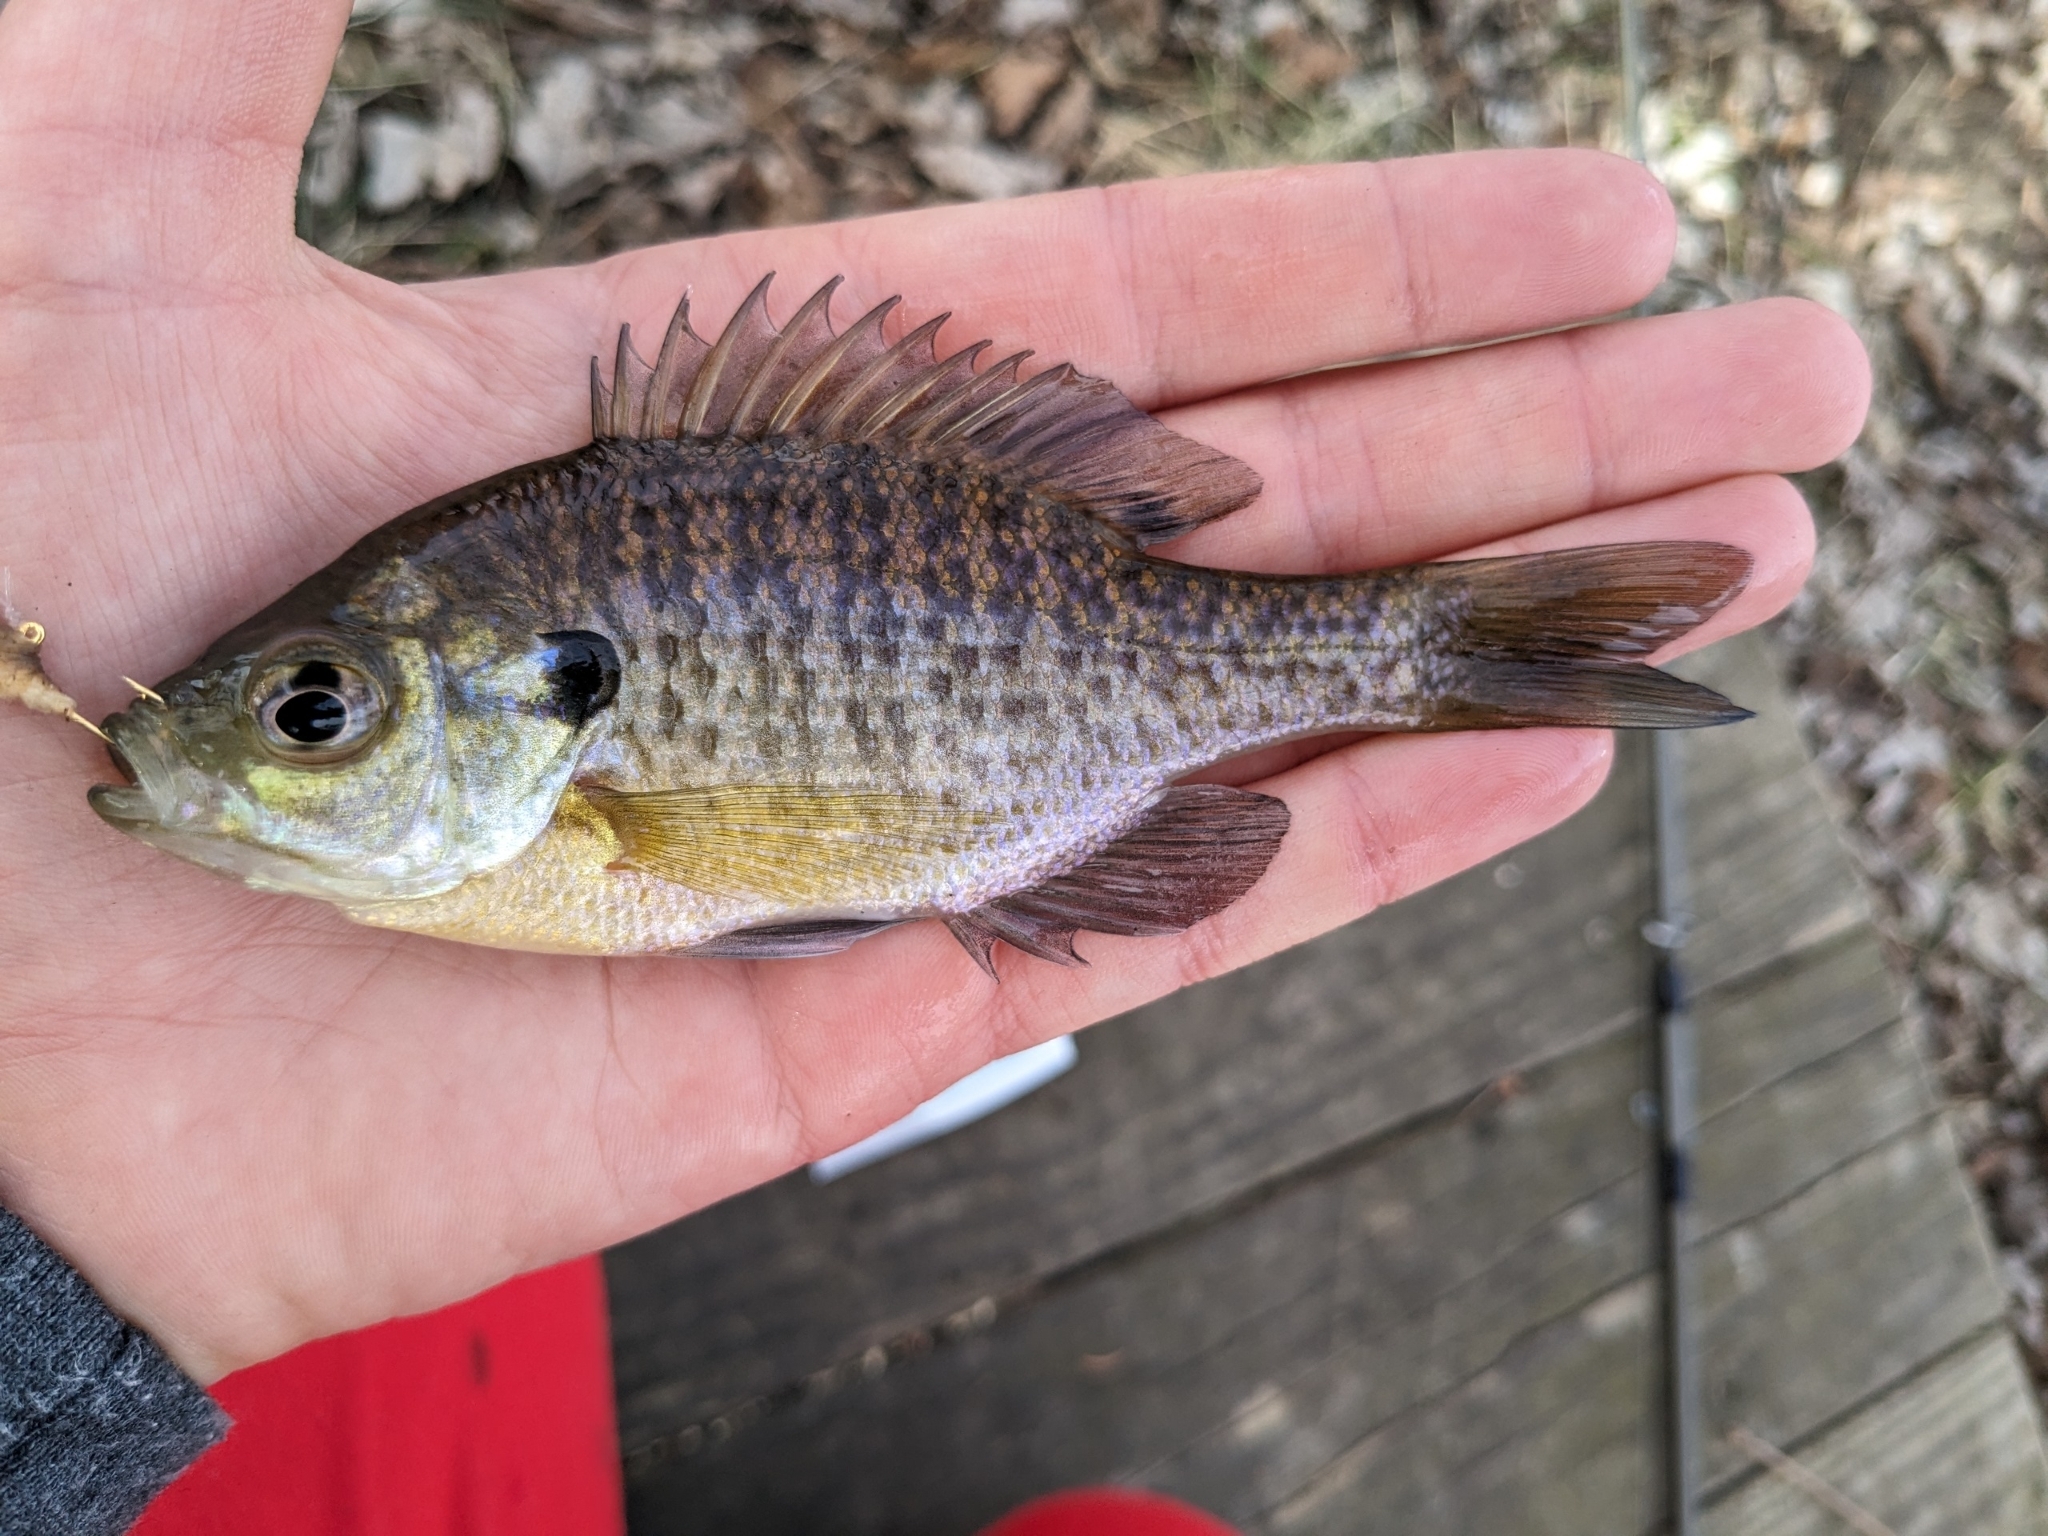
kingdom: Animalia
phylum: Chordata
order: Perciformes
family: Centrarchidae
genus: Lepomis
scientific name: Lepomis macrochirus
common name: Bluegill
